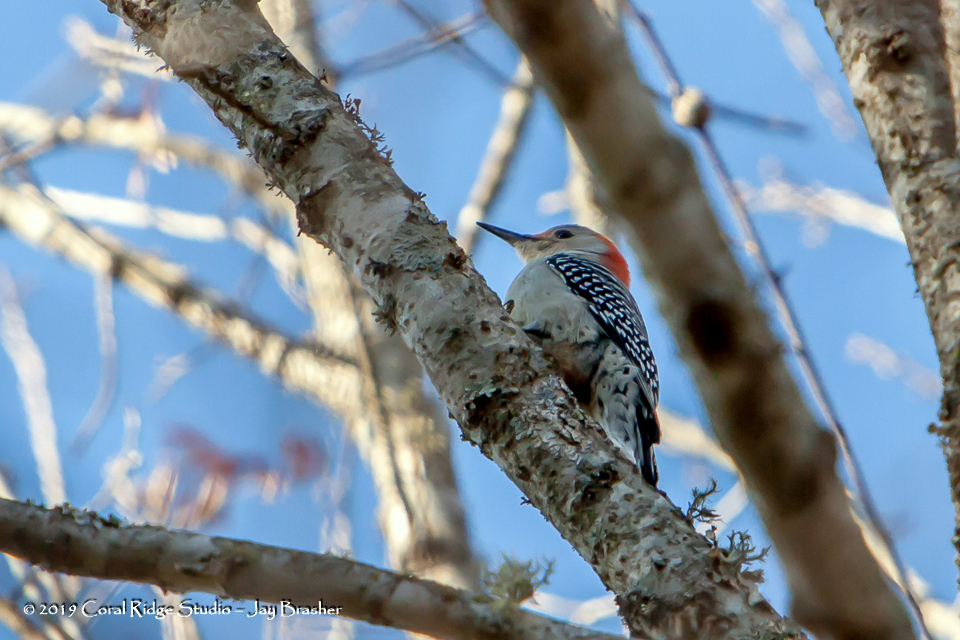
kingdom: Animalia
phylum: Chordata
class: Aves
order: Piciformes
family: Picidae
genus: Melanerpes
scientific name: Melanerpes carolinus
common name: Red-bellied woodpecker
